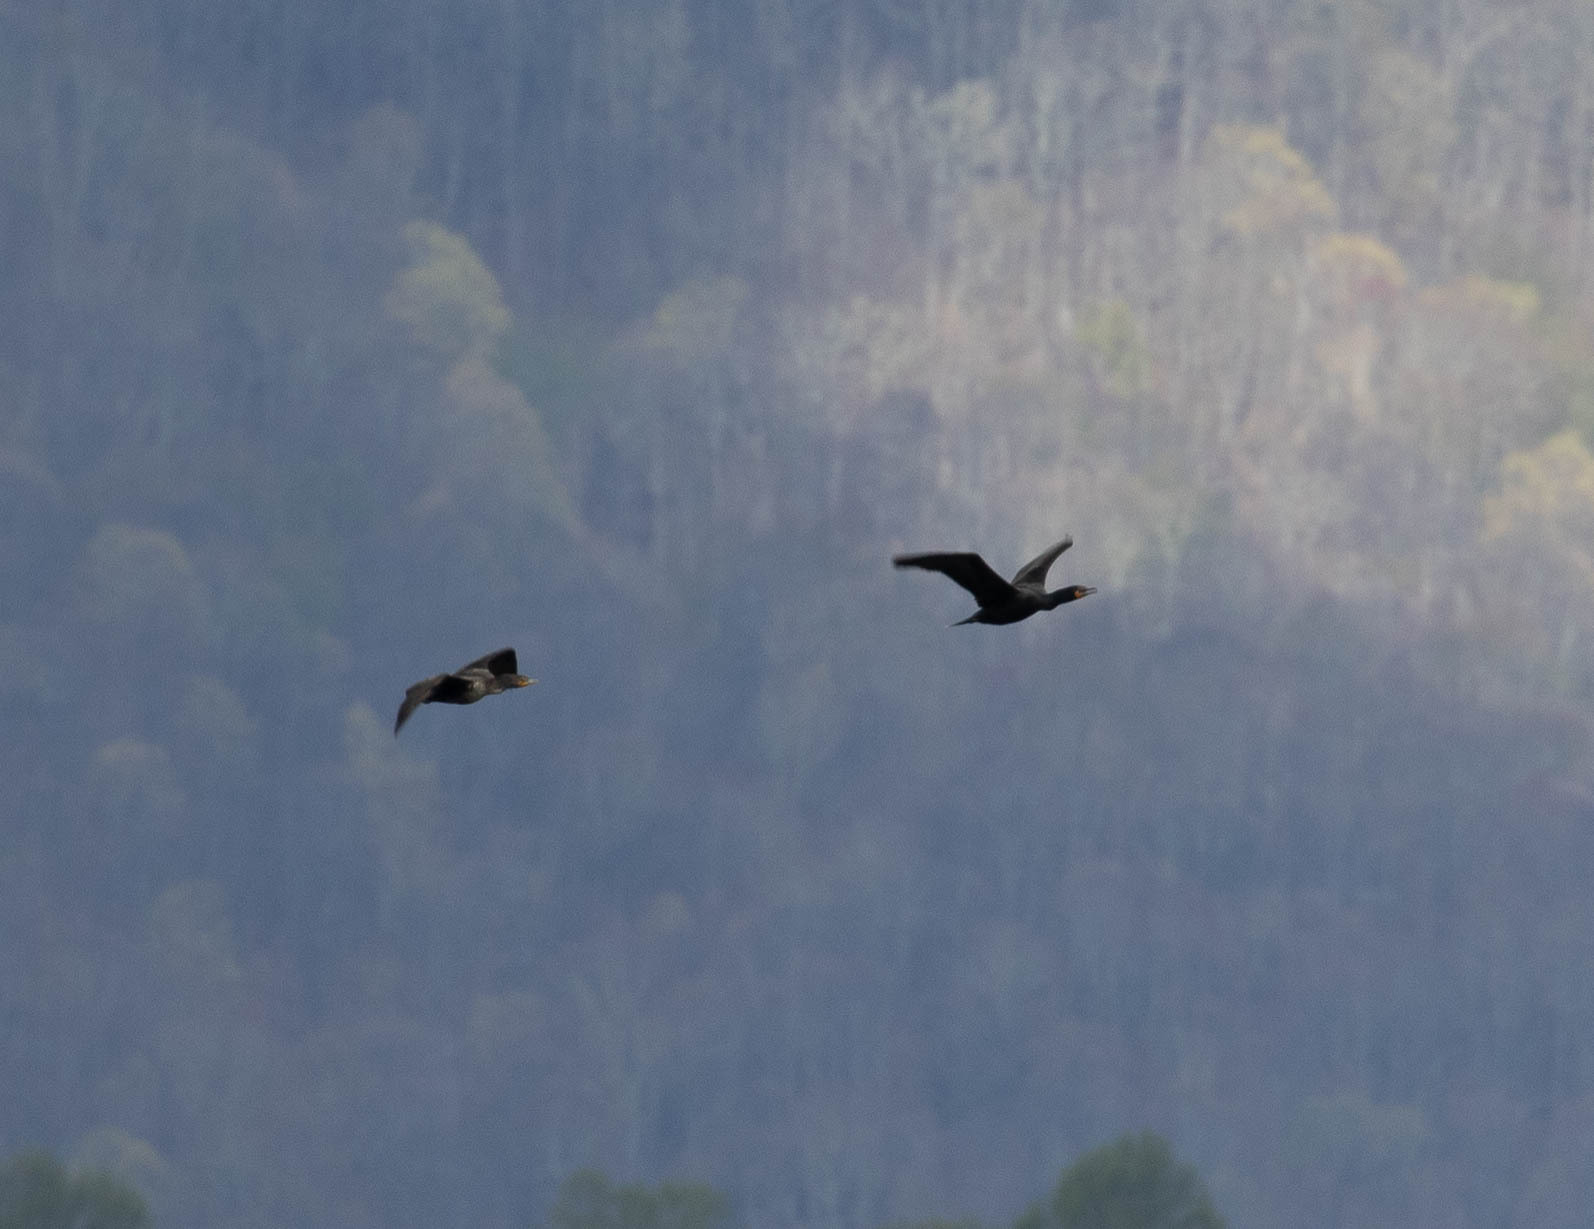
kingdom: Animalia
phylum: Chordata
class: Aves
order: Suliformes
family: Phalacrocoracidae
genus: Phalacrocorax
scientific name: Phalacrocorax auritus
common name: Double-crested cormorant
